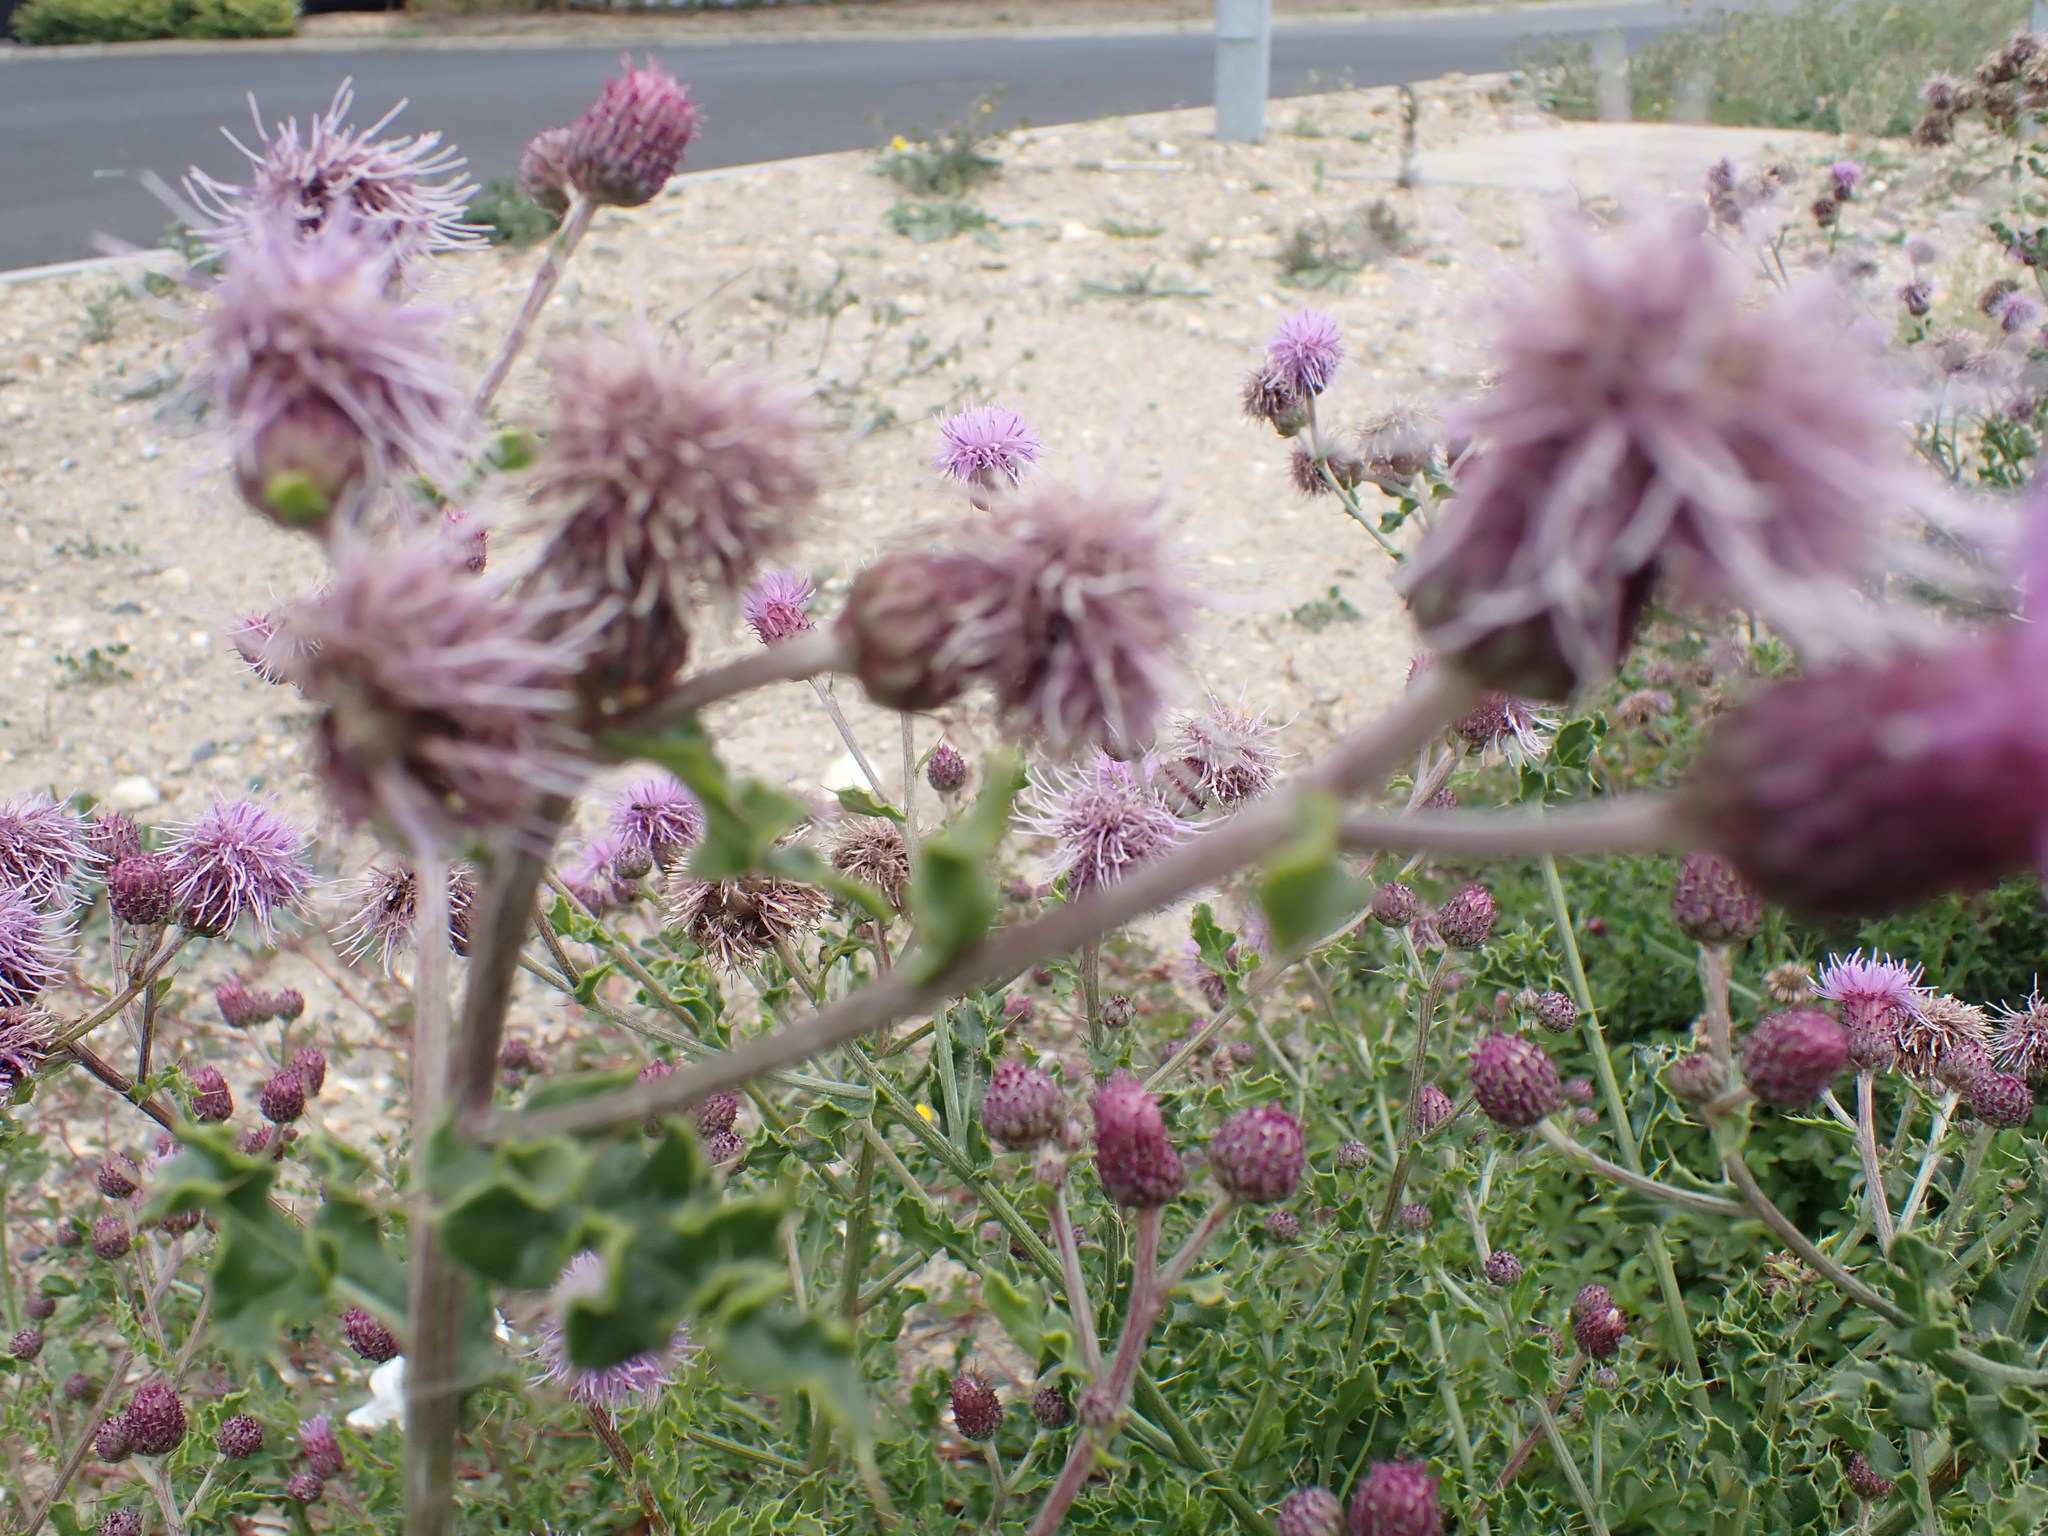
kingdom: Plantae
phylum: Tracheophyta
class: Magnoliopsida
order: Asterales
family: Asteraceae
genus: Cirsium
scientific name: Cirsium arvense
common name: Creeping thistle
